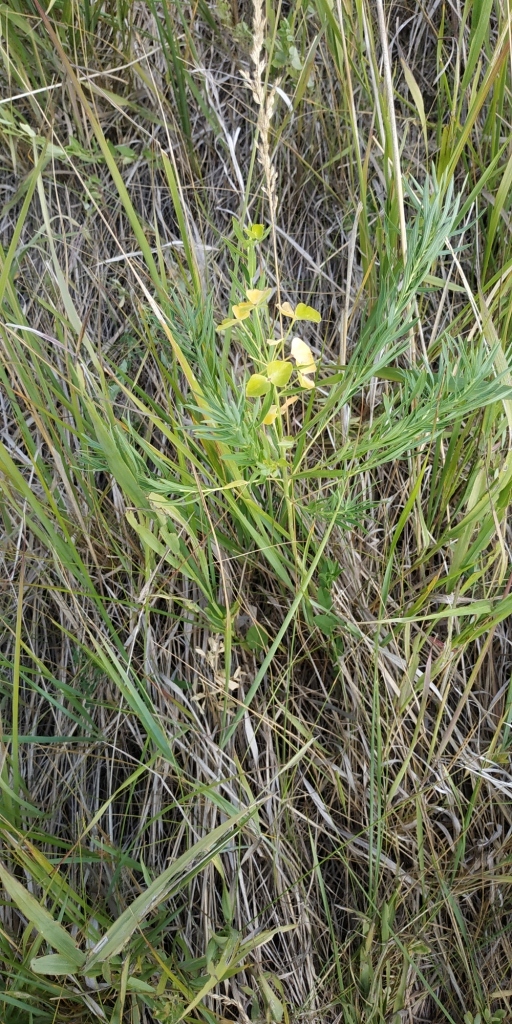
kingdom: Plantae
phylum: Tracheophyta
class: Magnoliopsida
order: Malpighiales
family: Euphorbiaceae
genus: Euphorbia
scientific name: Euphorbia virgata
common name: Leafy spurge
